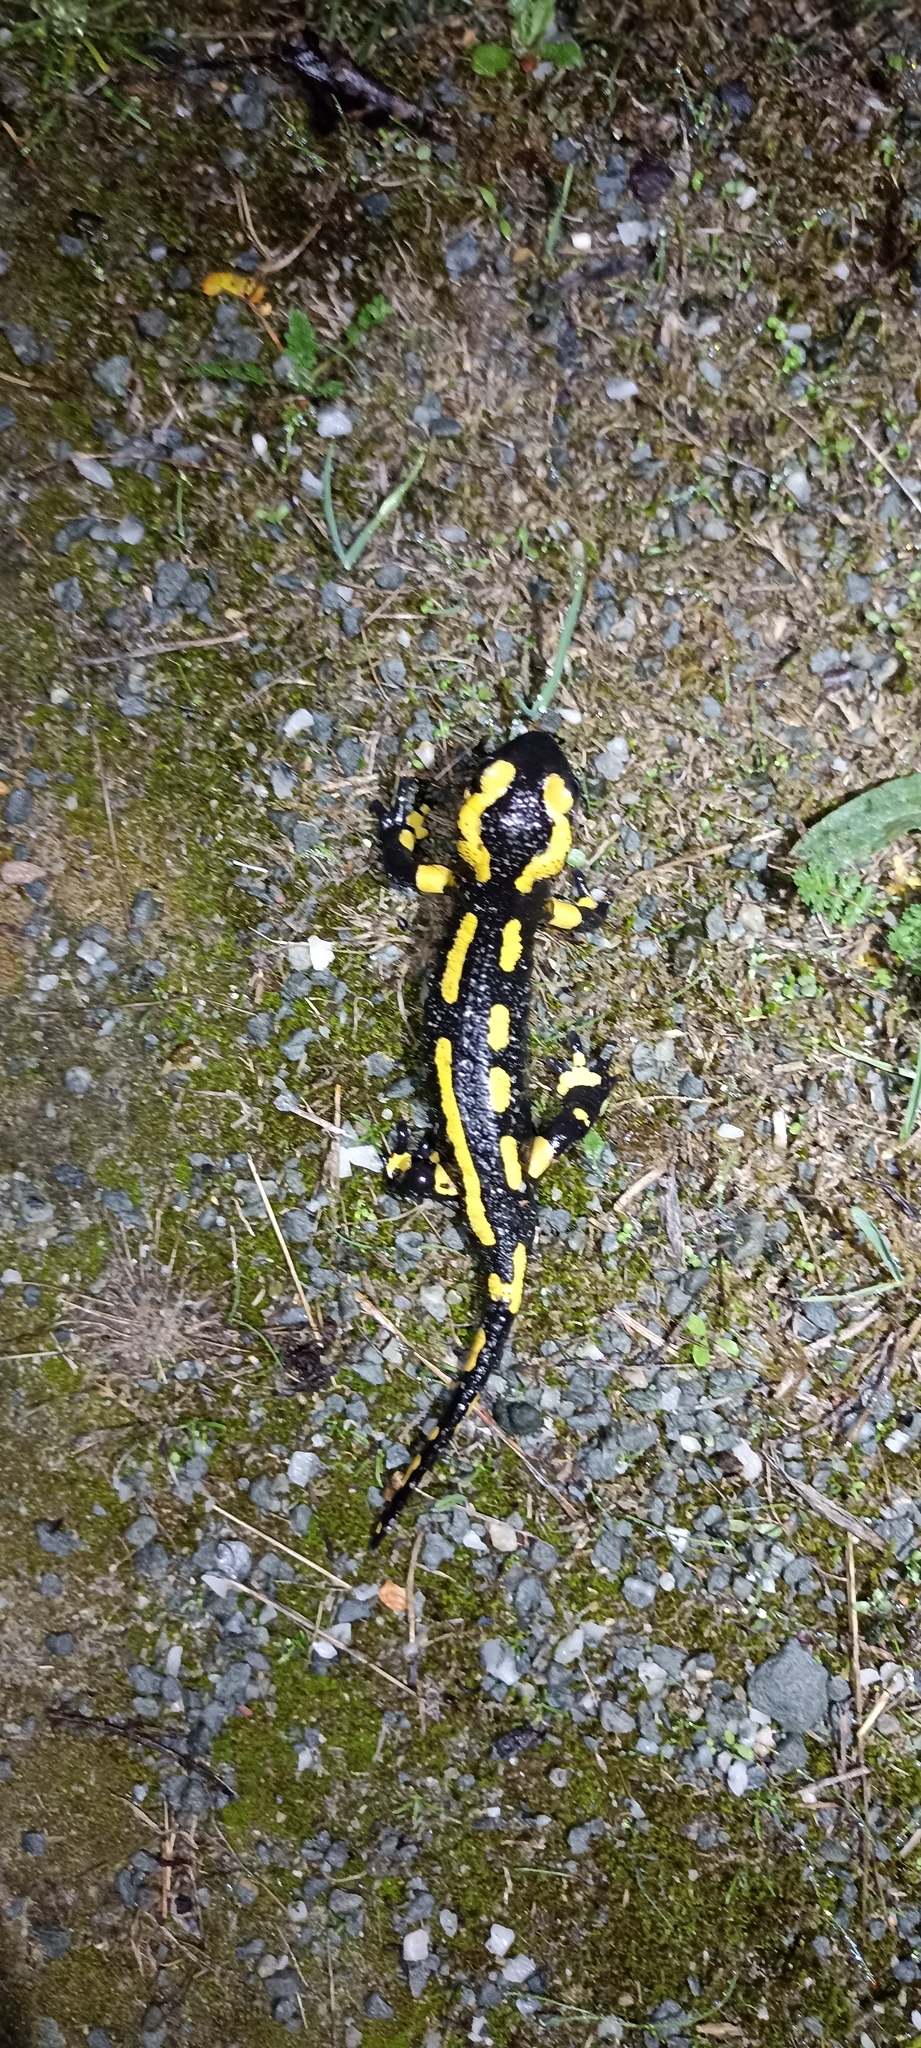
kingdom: Animalia
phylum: Chordata
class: Amphibia
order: Caudata
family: Salamandridae
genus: Salamandra
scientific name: Salamandra salamandra
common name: Fire salamander
